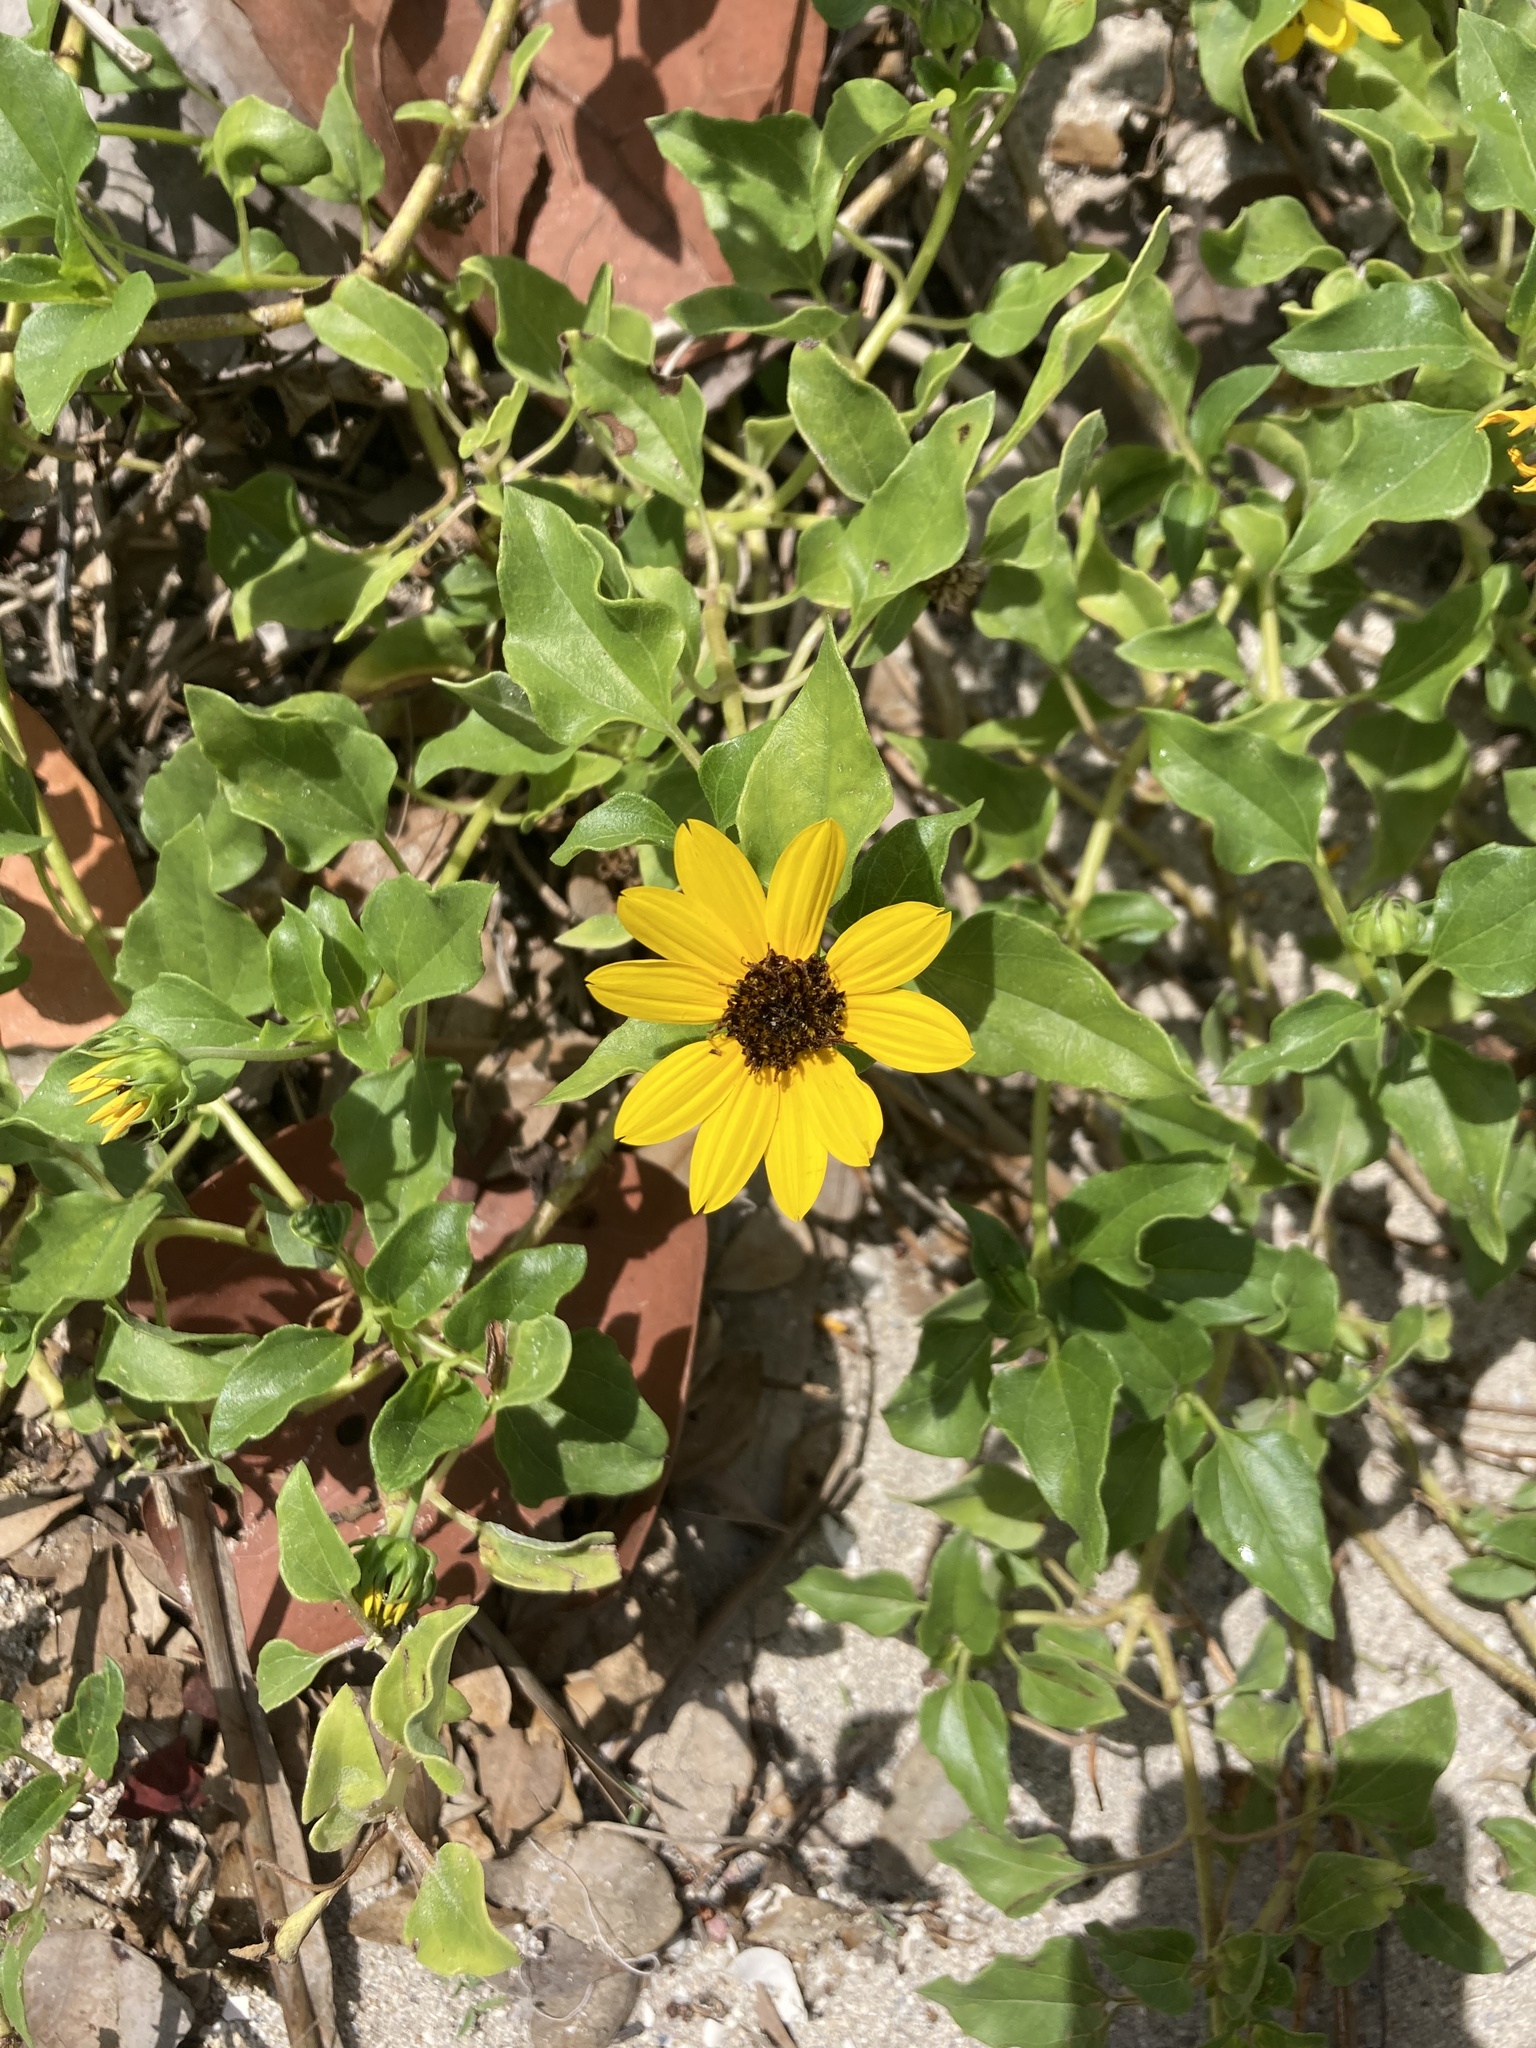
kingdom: Plantae
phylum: Tracheophyta
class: Magnoliopsida
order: Asterales
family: Asteraceae
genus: Helianthus
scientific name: Helianthus debilis
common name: Weak sunflower
